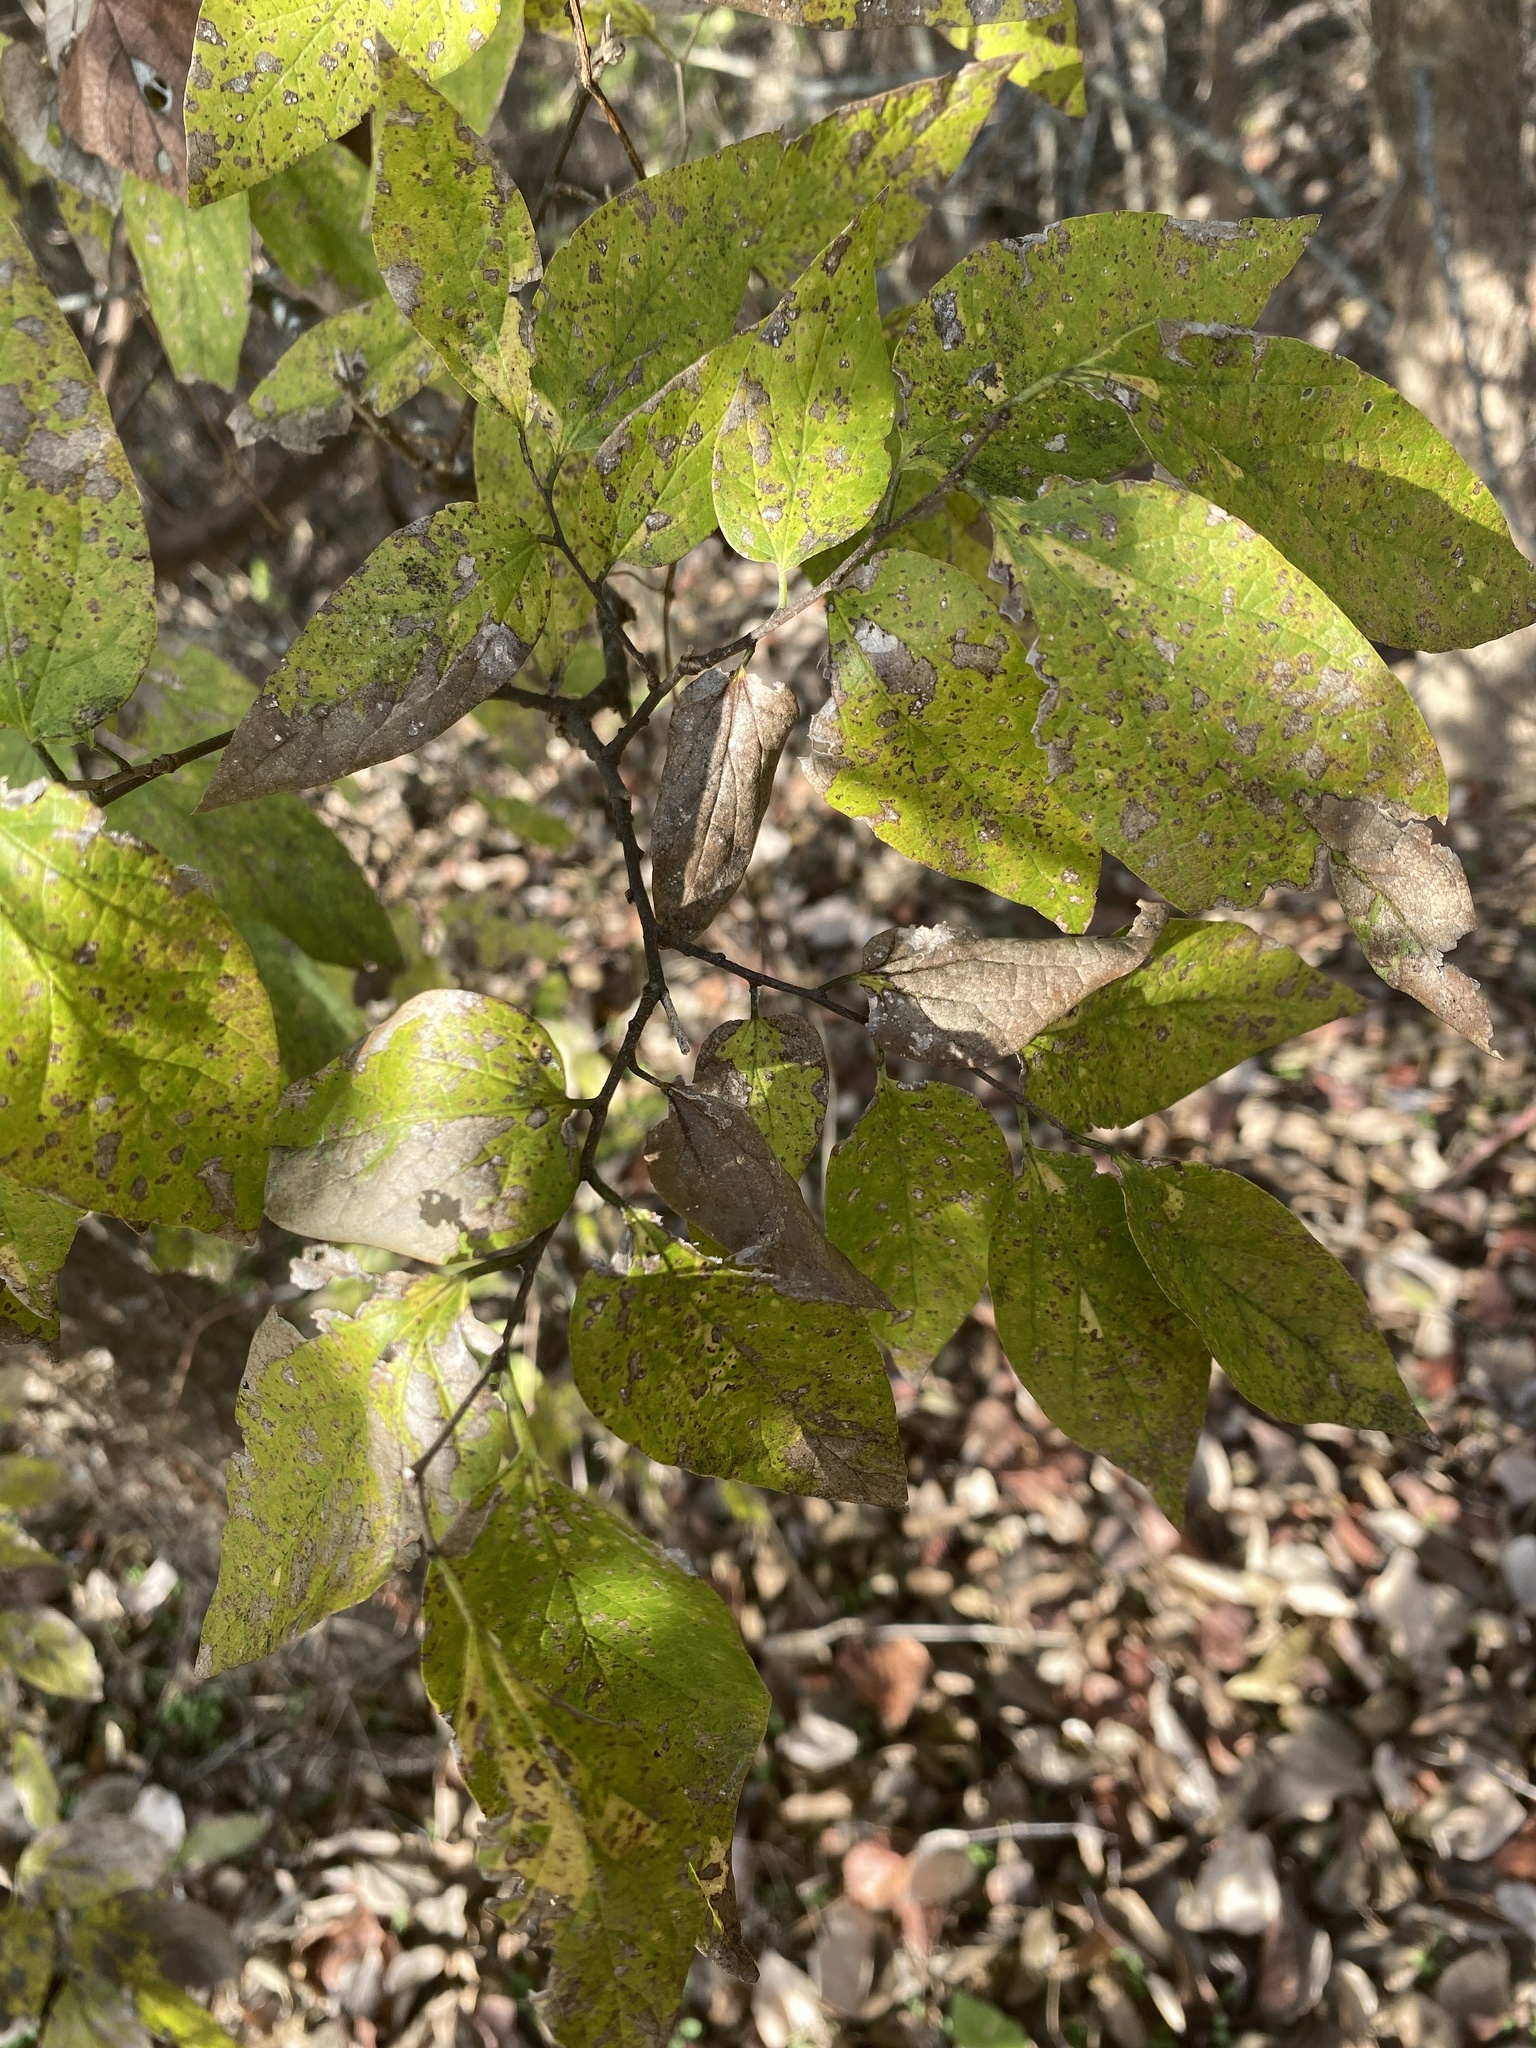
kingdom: Plantae
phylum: Tracheophyta
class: Magnoliopsida
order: Rosales
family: Cannabaceae
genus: Celtis
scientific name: Celtis reticulata
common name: Netleaf hackberry
